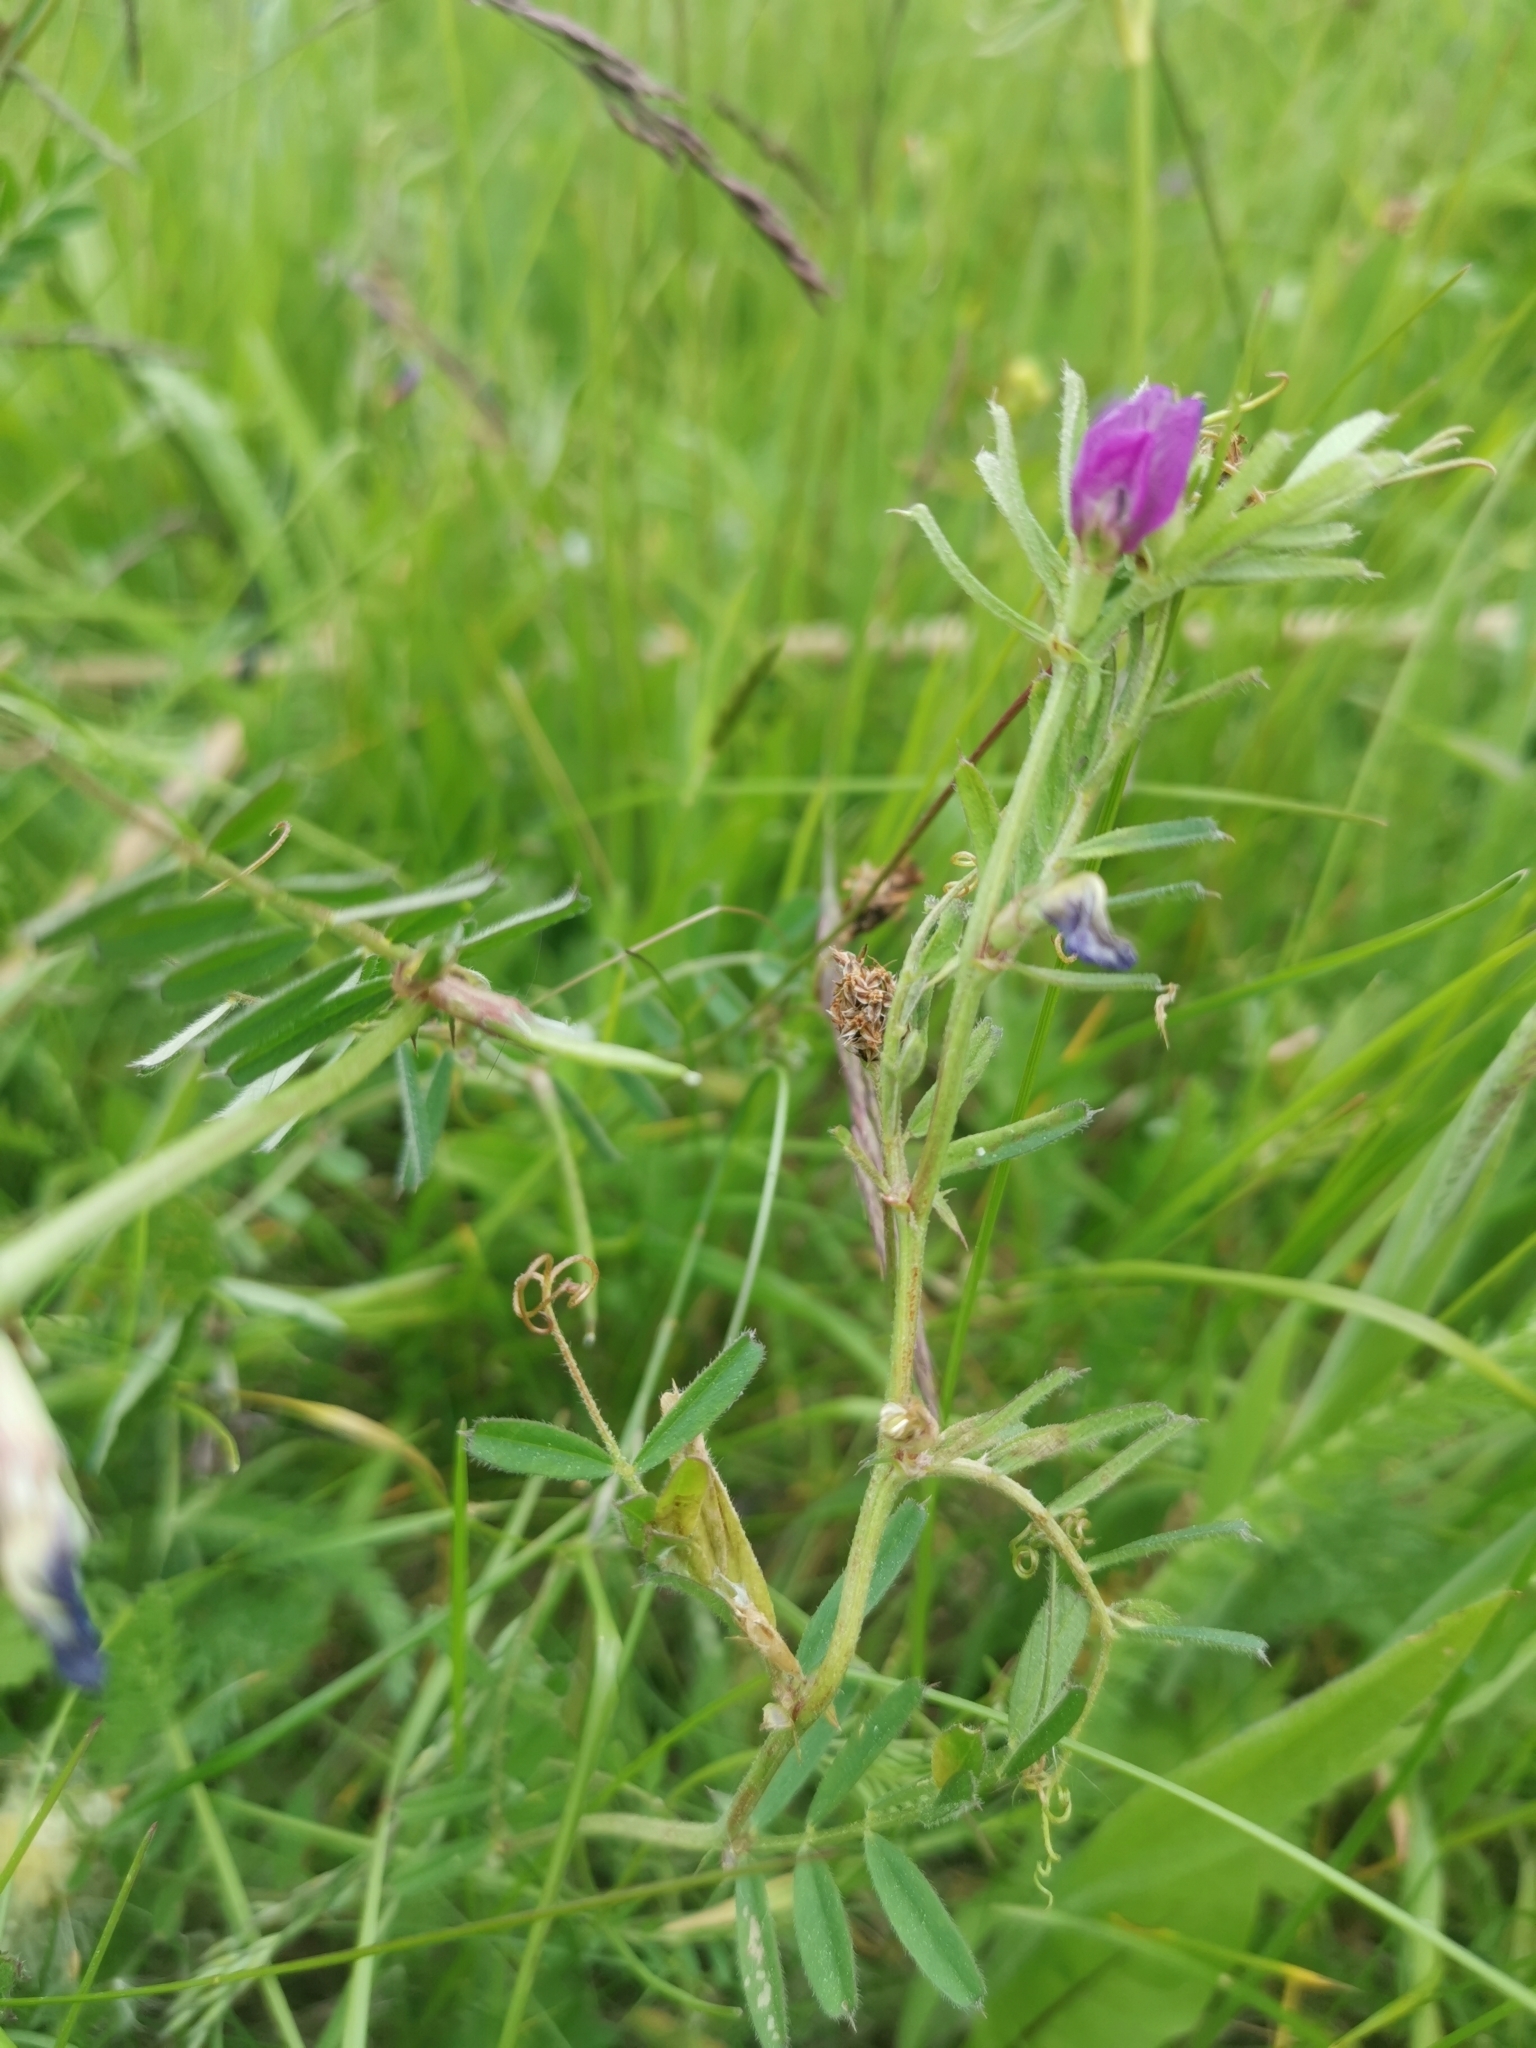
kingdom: Plantae
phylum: Tracheophyta
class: Magnoliopsida
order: Fabales
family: Fabaceae
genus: Vicia
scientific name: Vicia sativa
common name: Garden vetch
